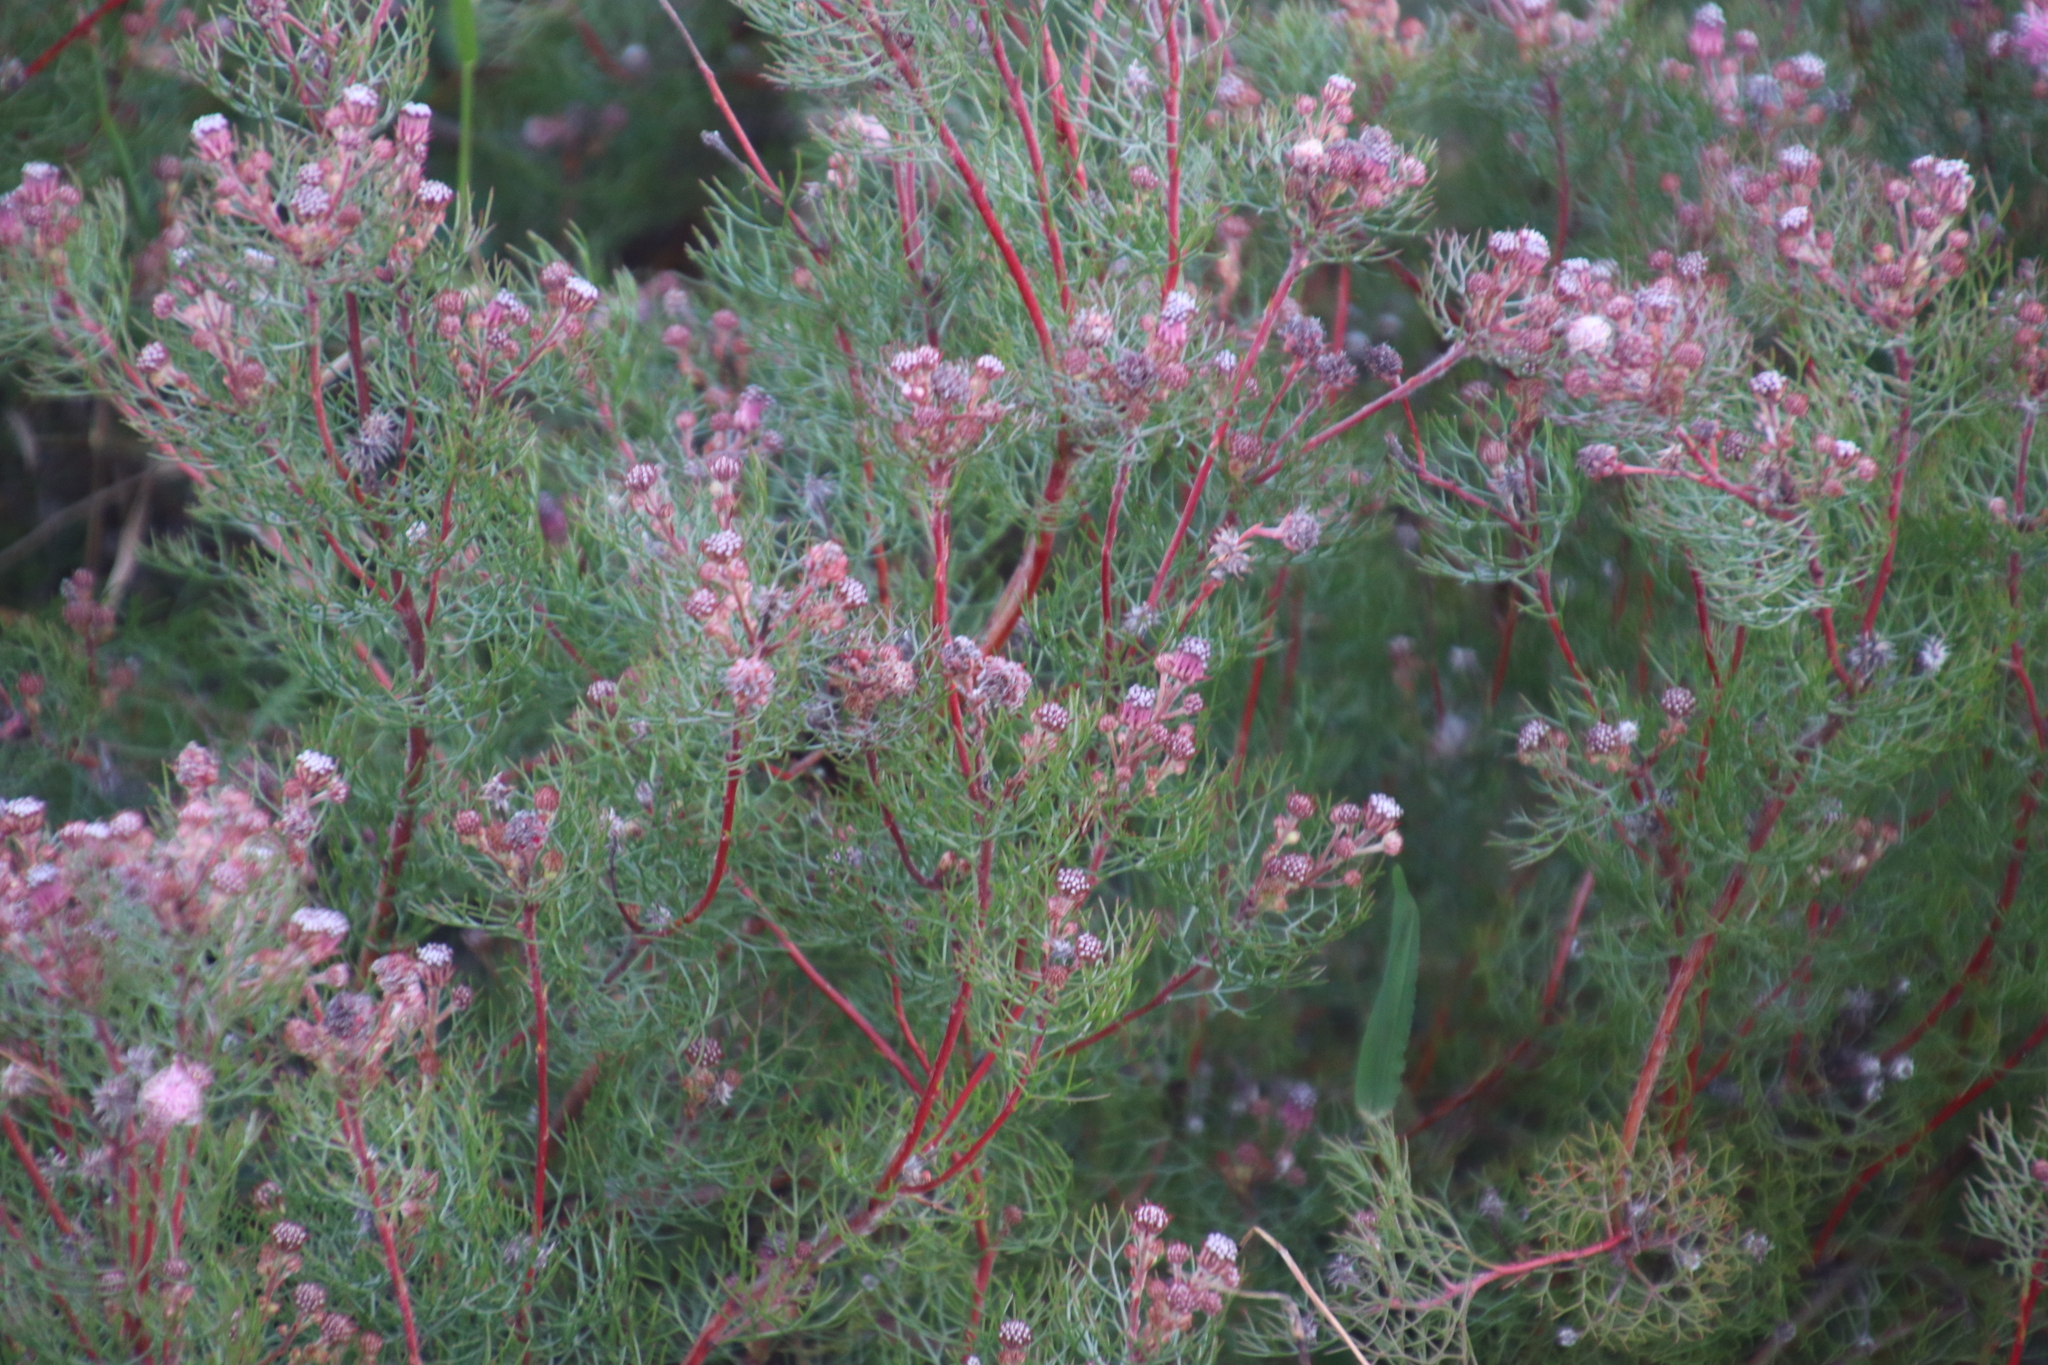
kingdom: Plantae
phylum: Tracheophyta
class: Magnoliopsida
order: Proteales
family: Proteaceae
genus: Serruria
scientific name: Serruria fasciflora
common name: Common pin spiderhead
